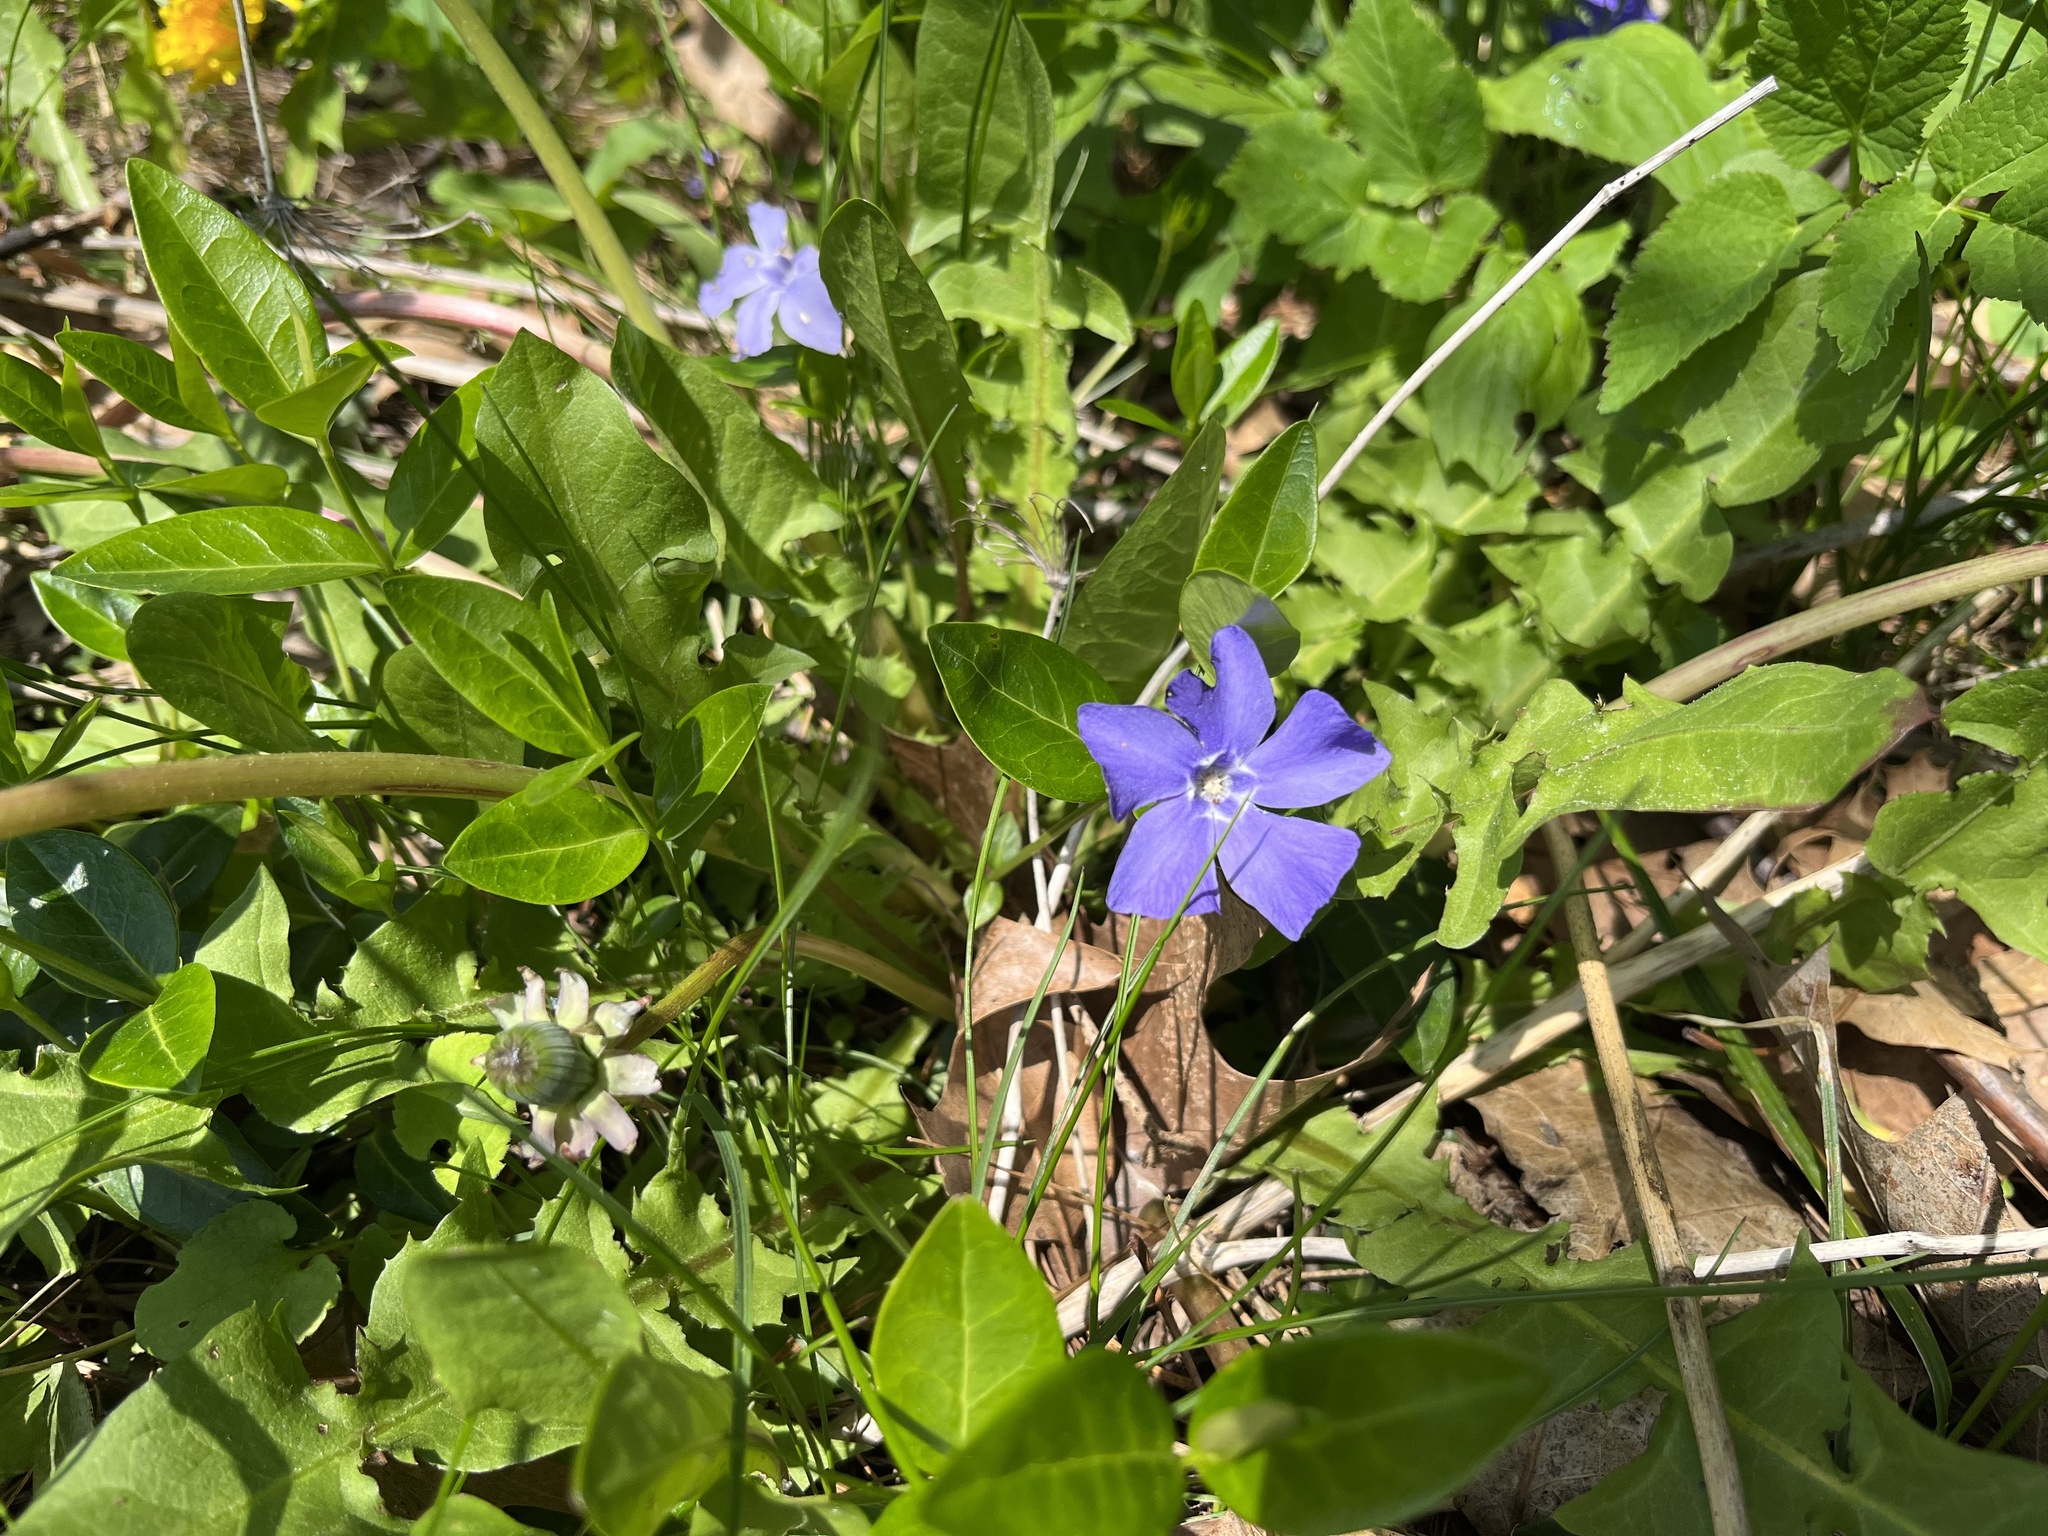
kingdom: Plantae
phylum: Tracheophyta
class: Magnoliopsida
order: Gentianales
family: Apocynaceae
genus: Vinca
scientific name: Vinca minor
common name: Lesser periwinkle
